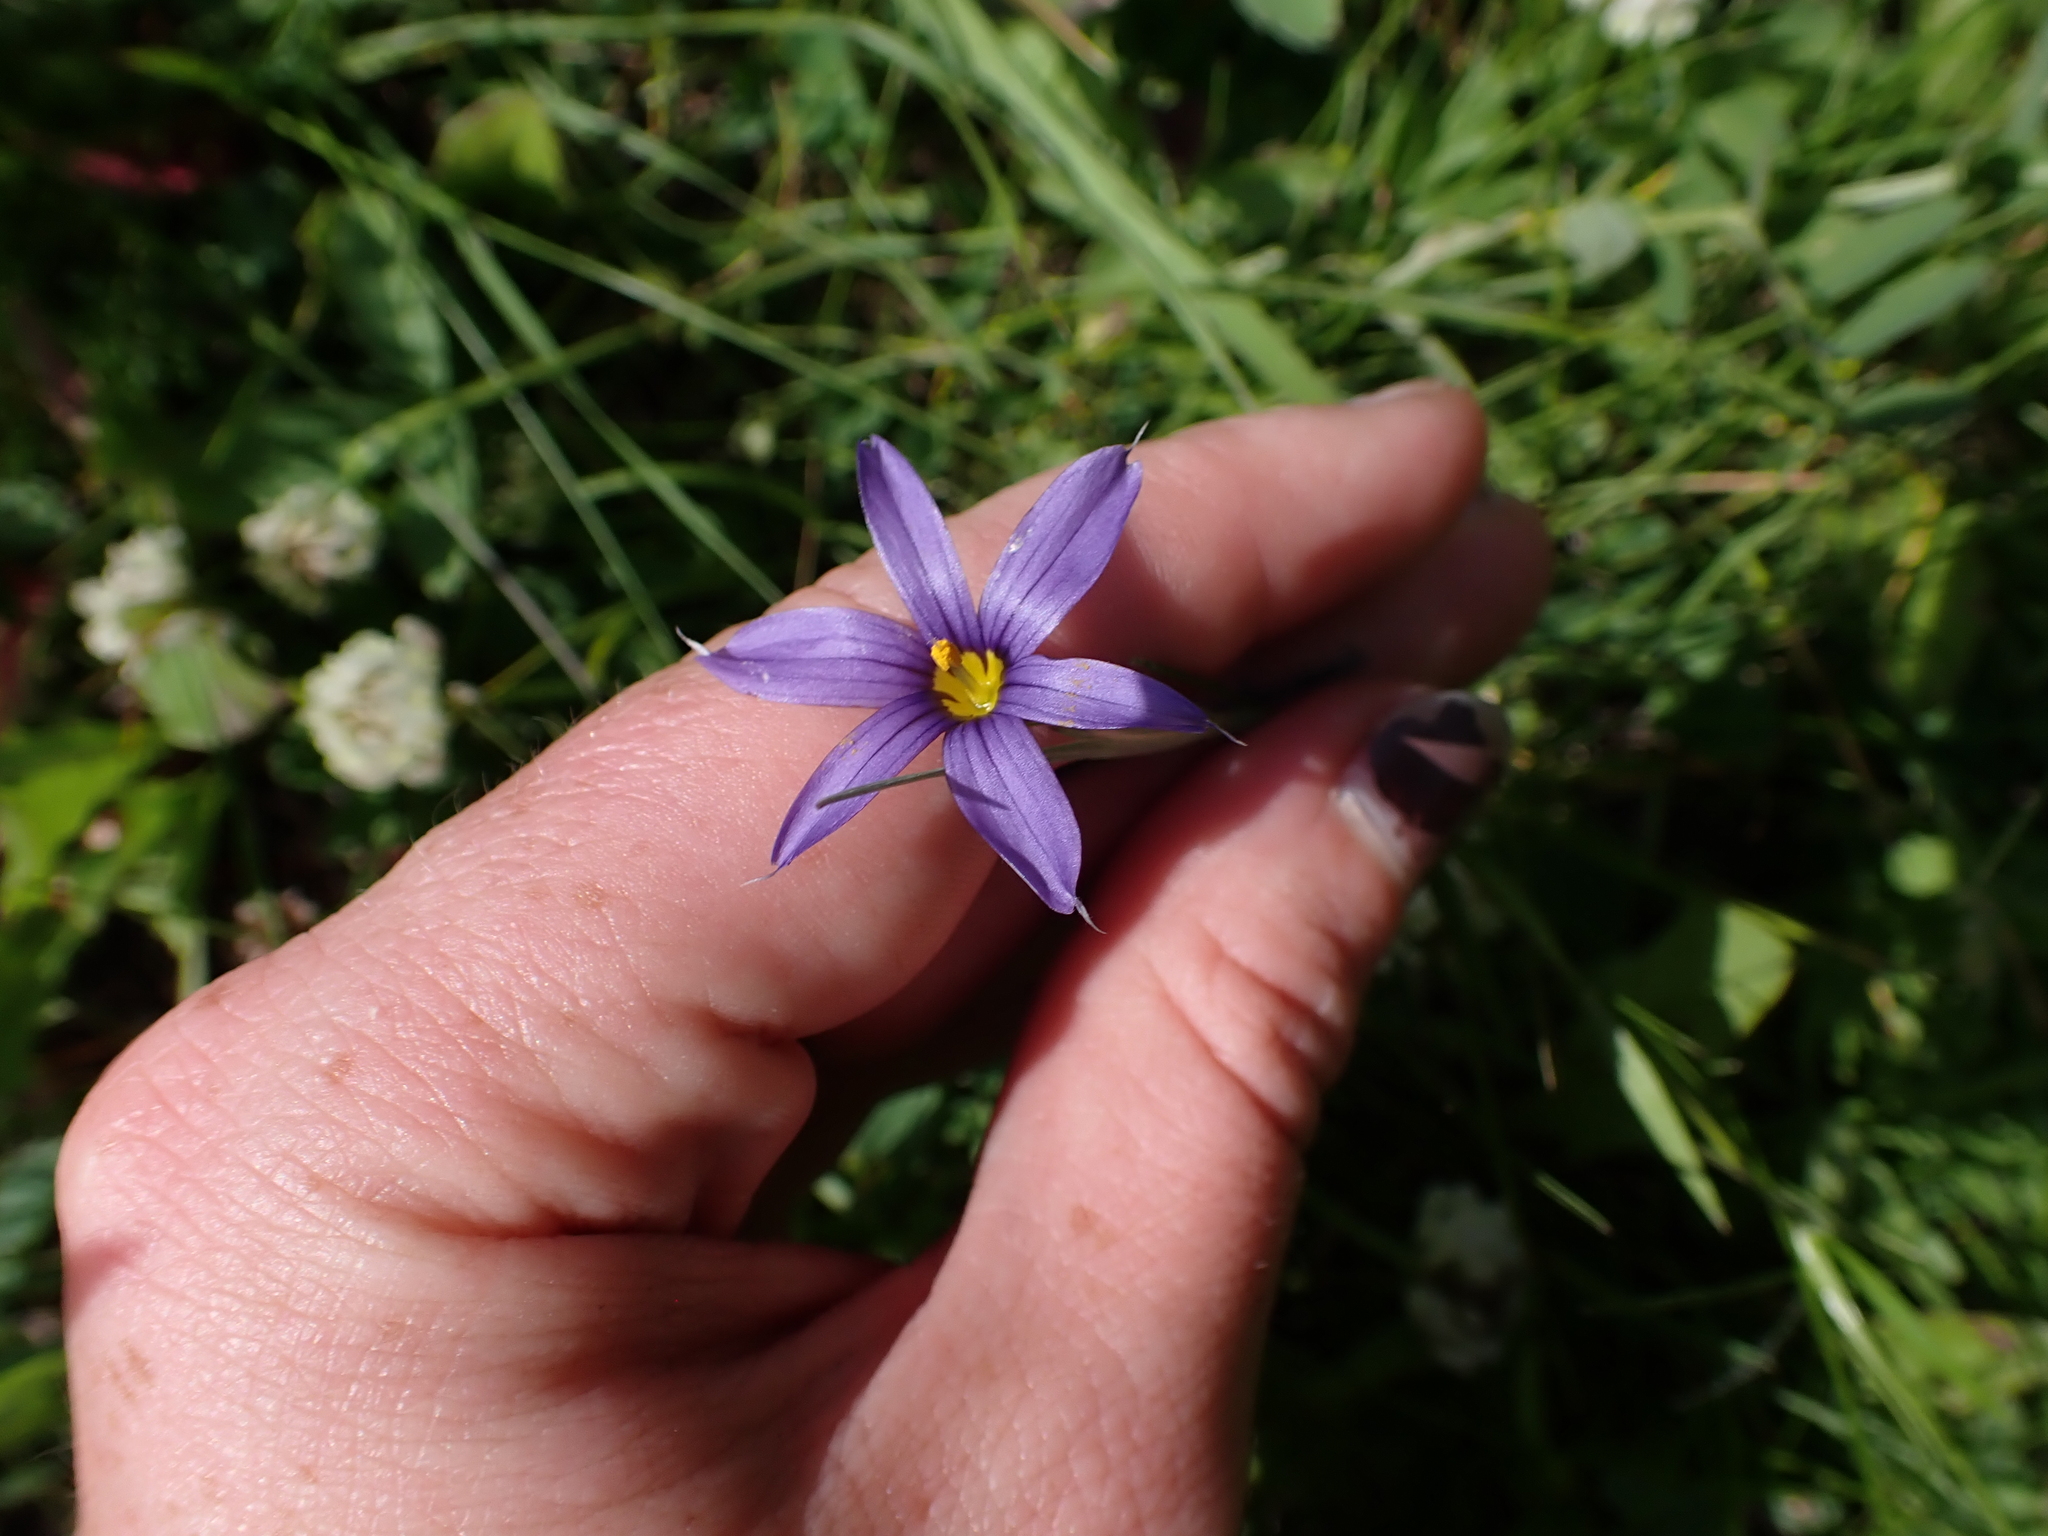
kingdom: Plantae
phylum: Tracheophyta
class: Liliopsida
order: Asparagales
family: Iridaceae
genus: Sisyrinchium
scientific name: Sisyrinchium montanum
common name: American blue-eyed-grass
